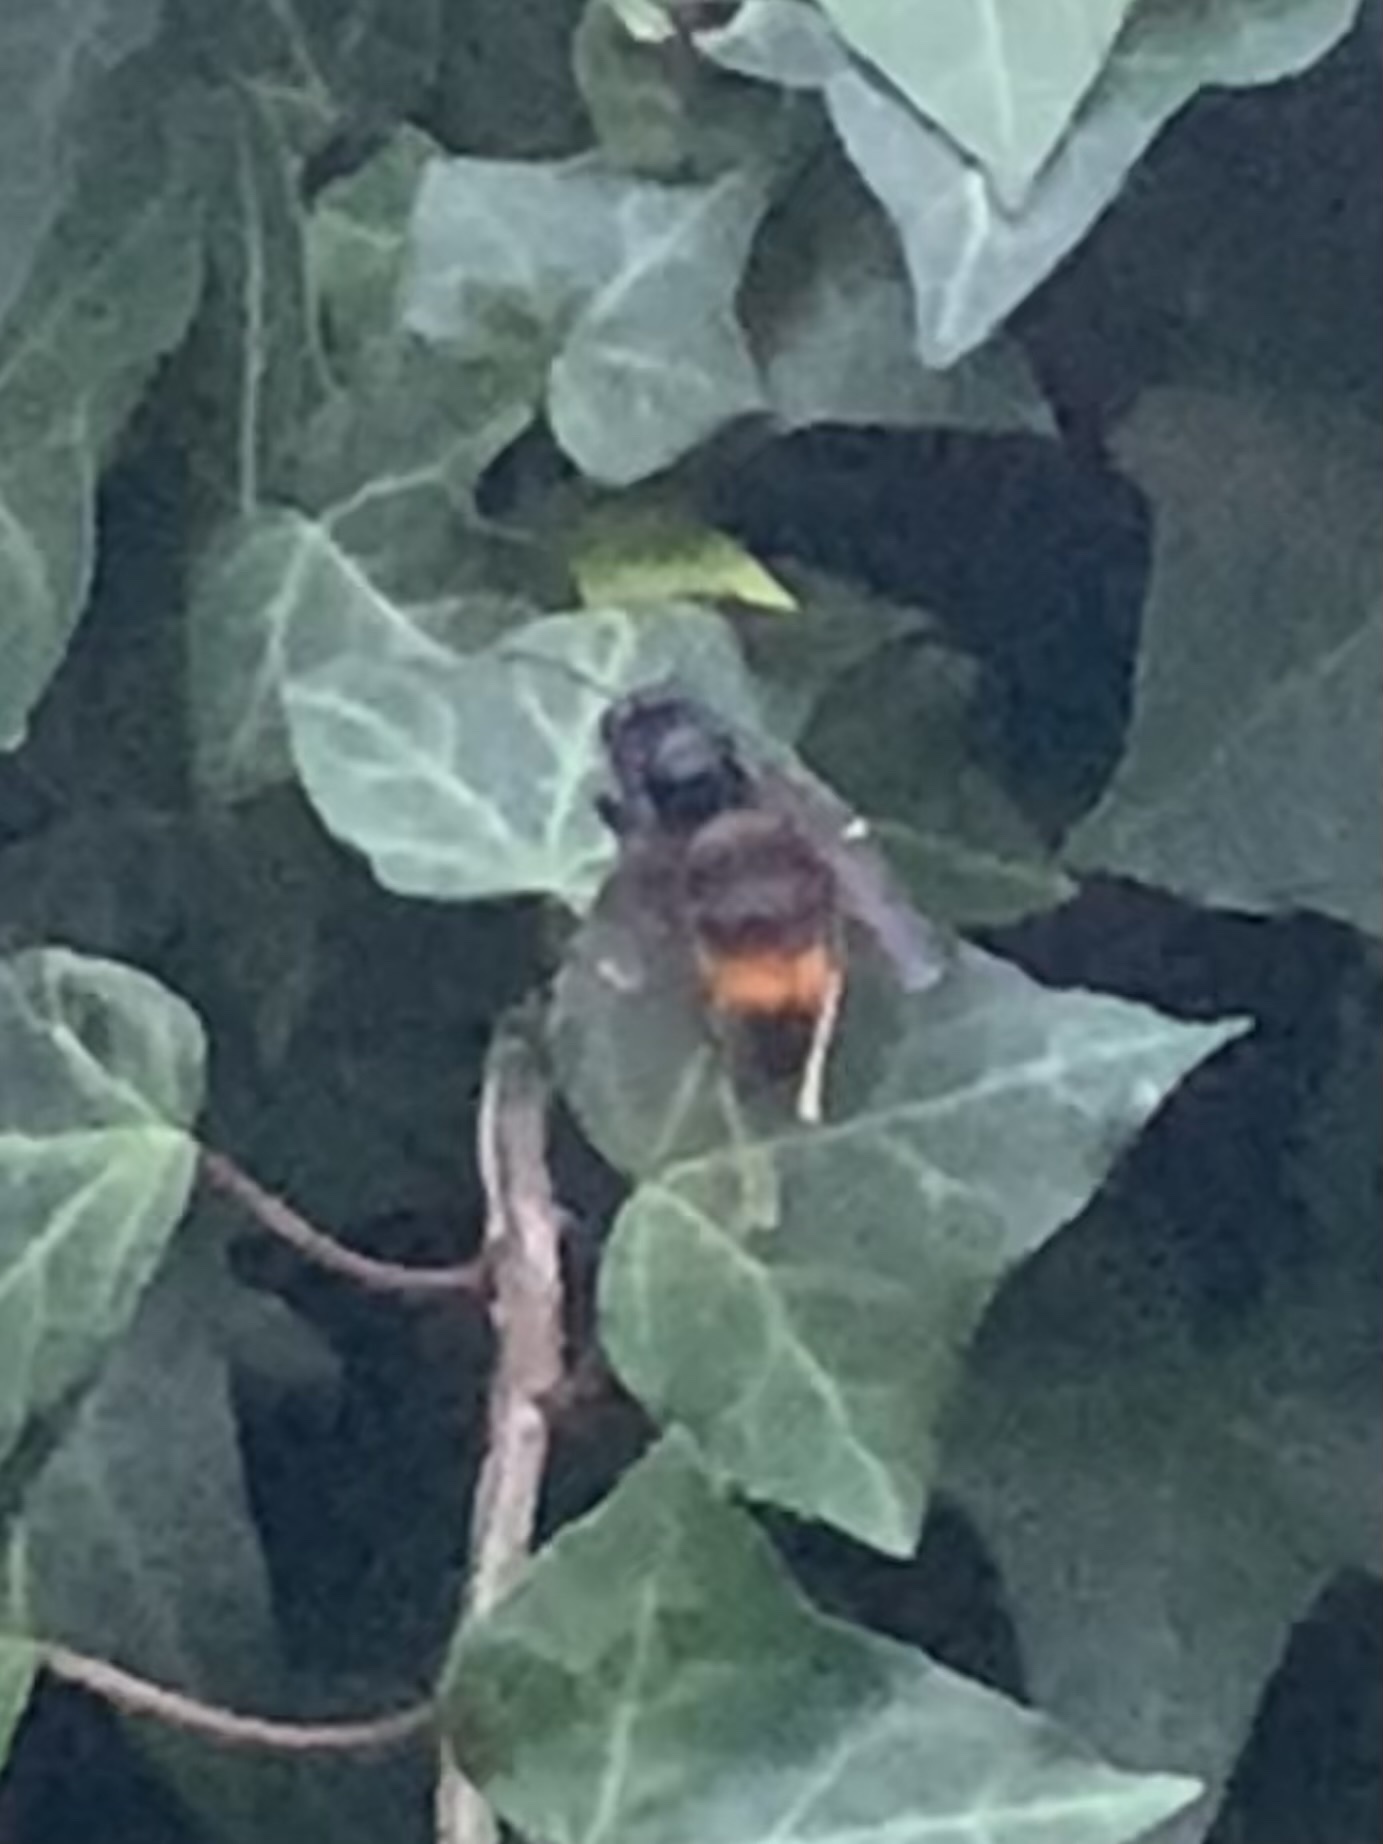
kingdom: Animalia
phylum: Arthropoda
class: Insecta
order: Hymenoptera
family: Vespidae
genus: Vespa
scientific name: Vespa velutina
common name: Asian hornet
